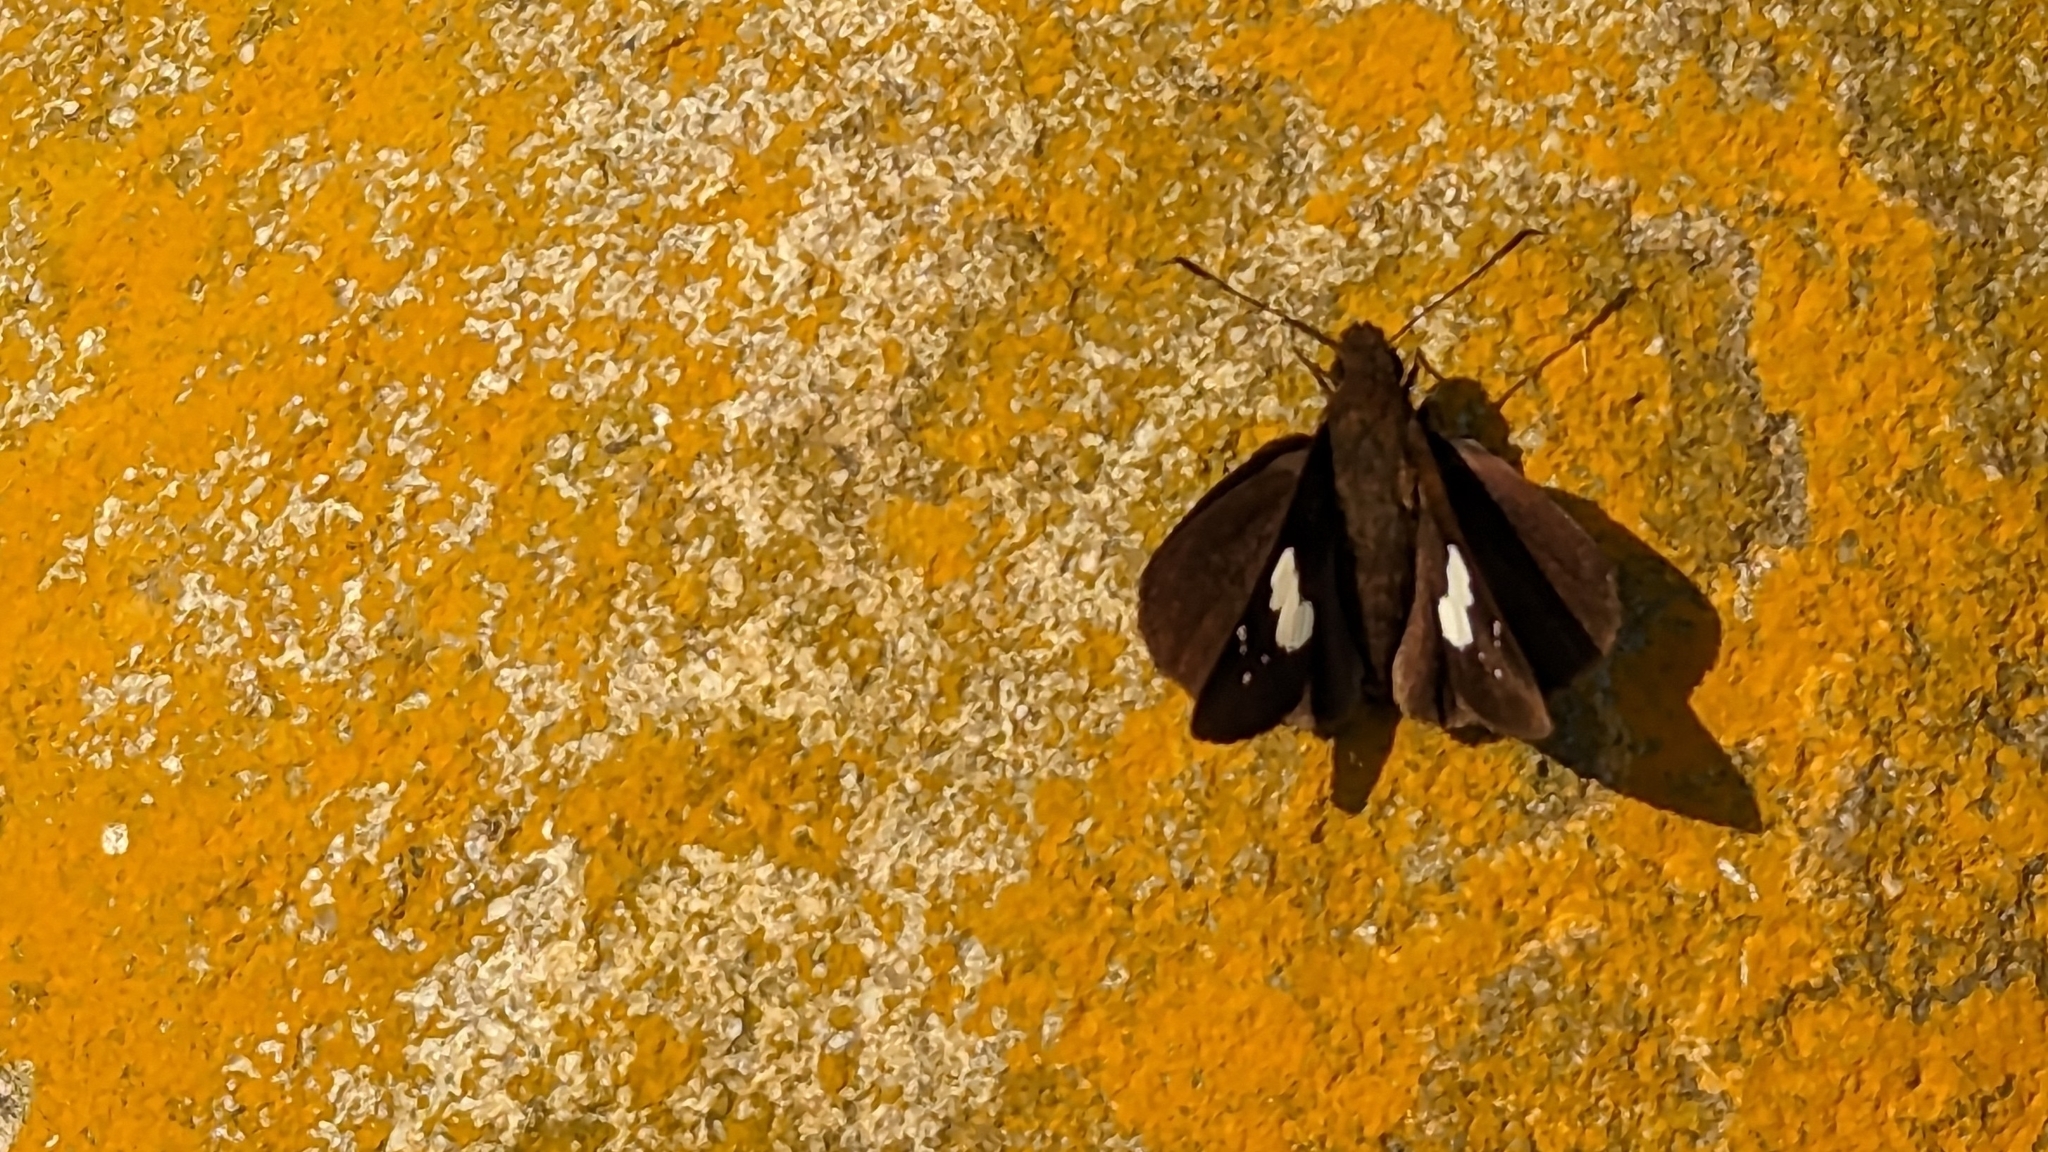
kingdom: Animalia
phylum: Arthropoda
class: Insecta
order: Lepidoptera
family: Hesperiidae
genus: Notocrypta
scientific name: Notocrypta curvifascia
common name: Restricted demon
